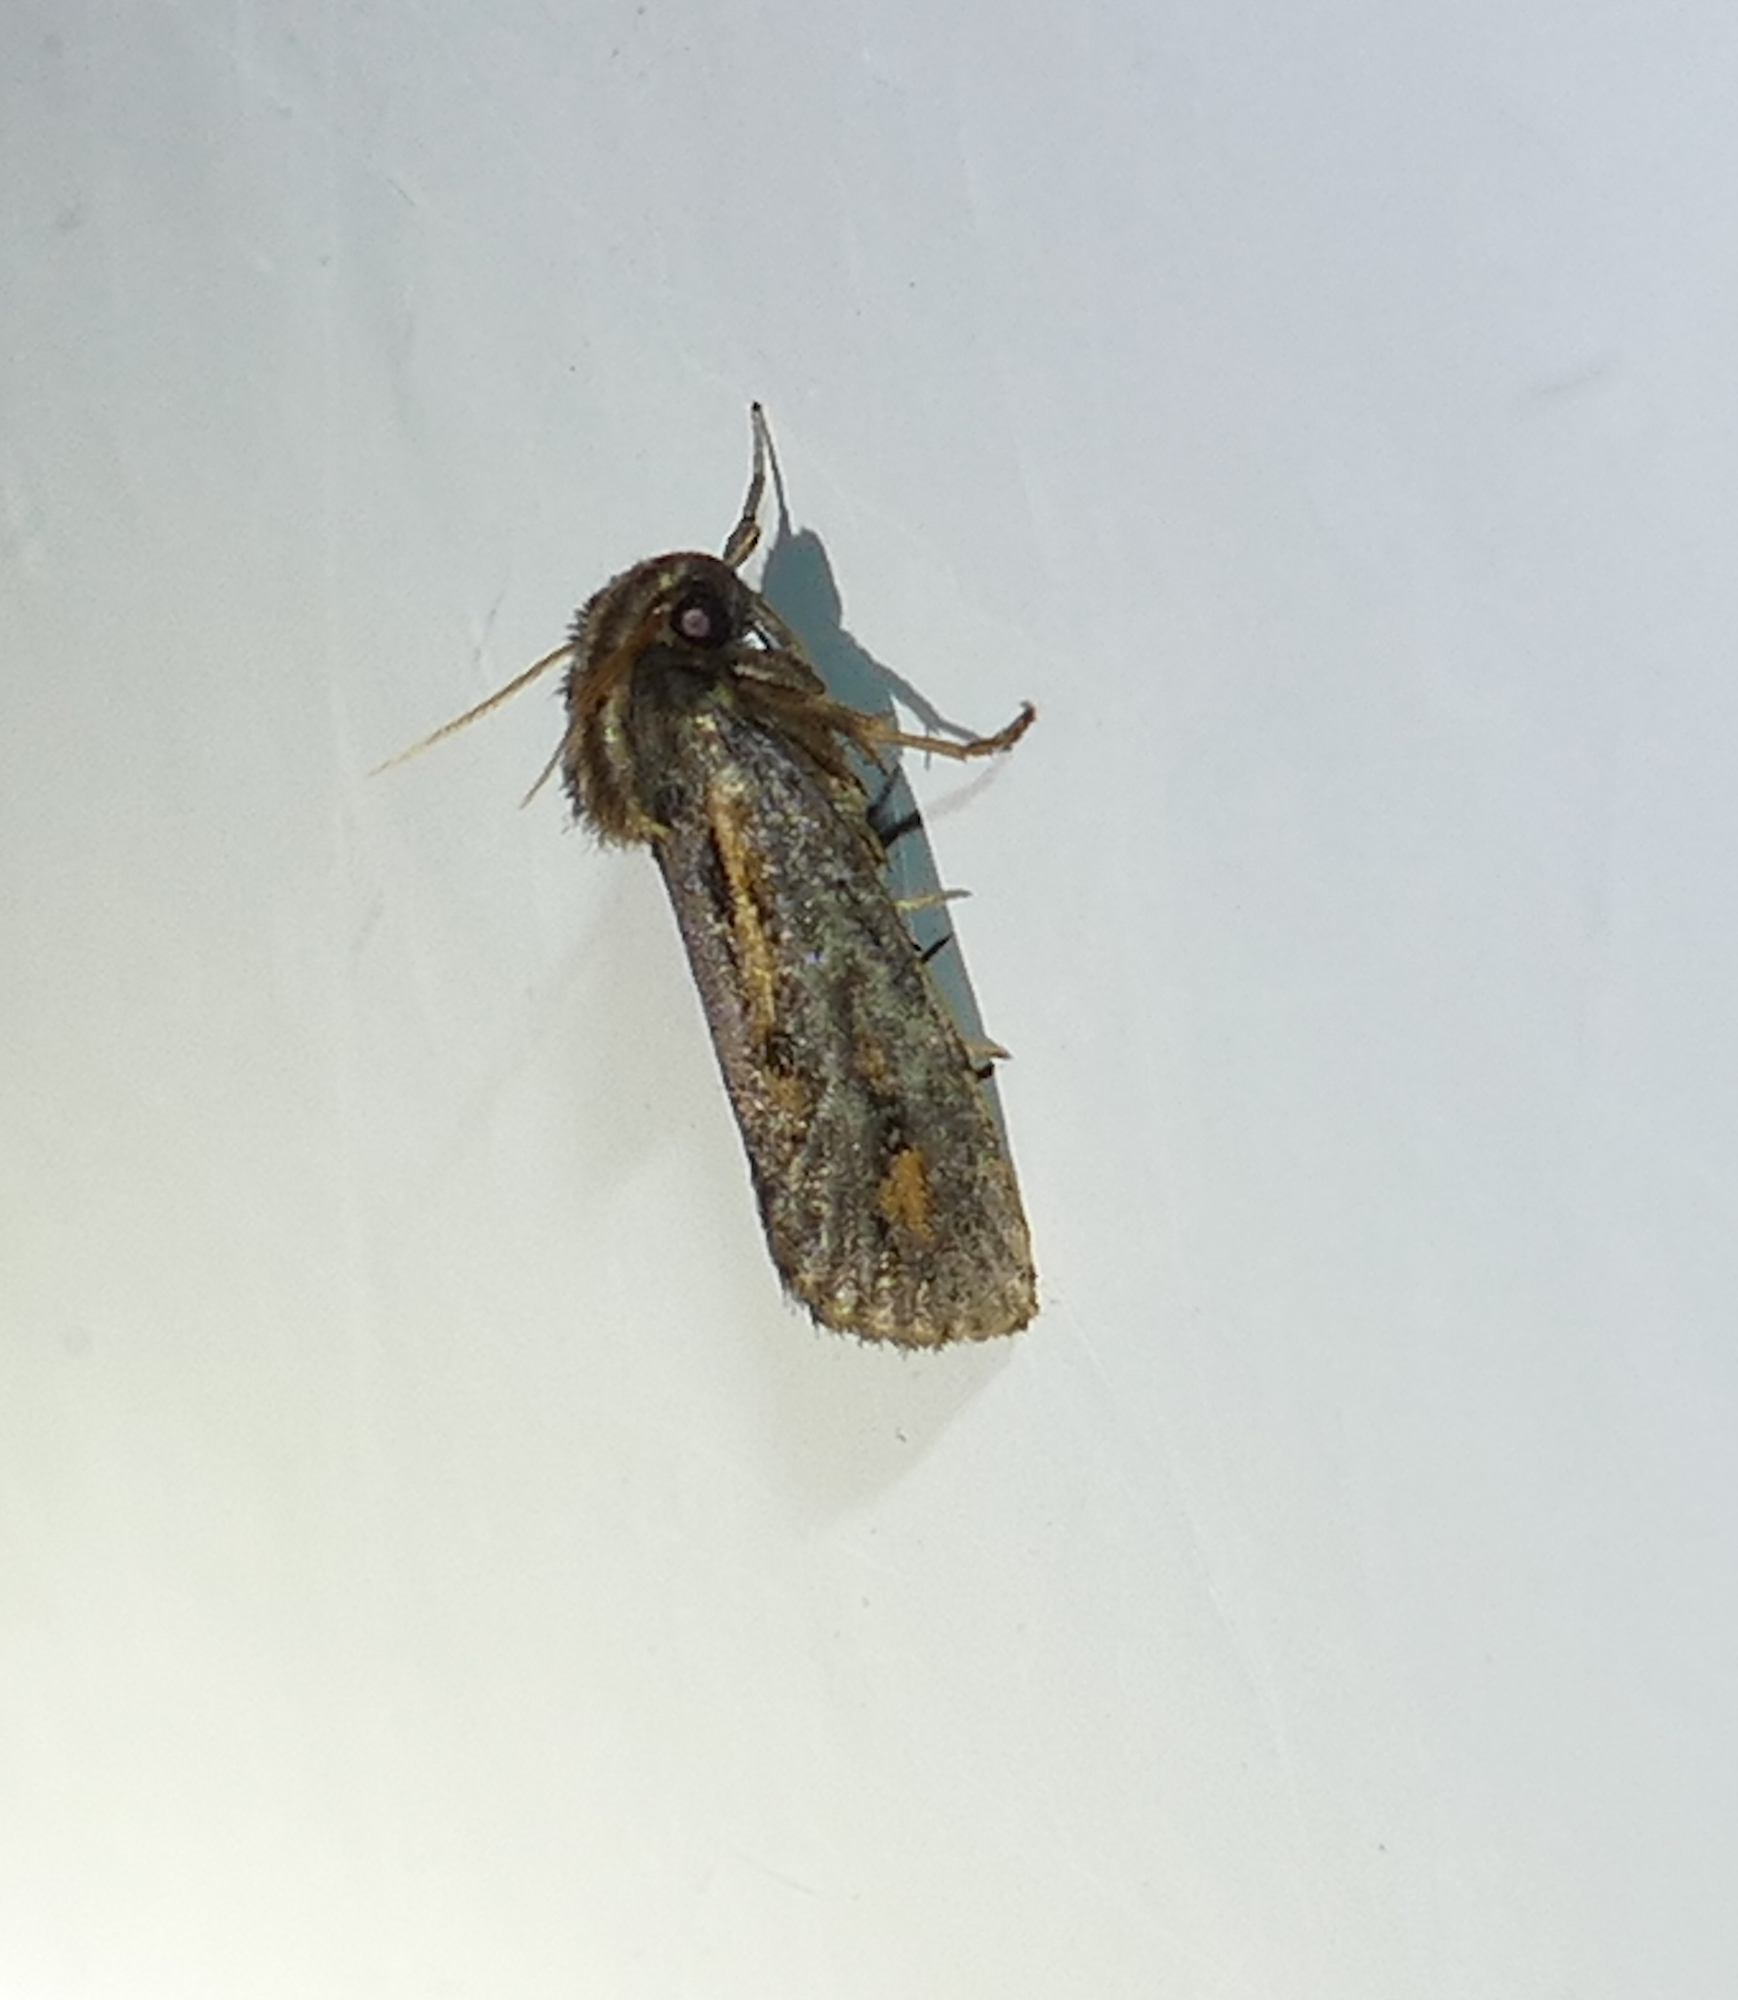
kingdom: Animalia
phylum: Arthropoda
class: Insecta
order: Lepidoptera
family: Tineidae
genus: Acrolophus
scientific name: Acrolophus popeanella
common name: Clemens' grass tubeworm moth
